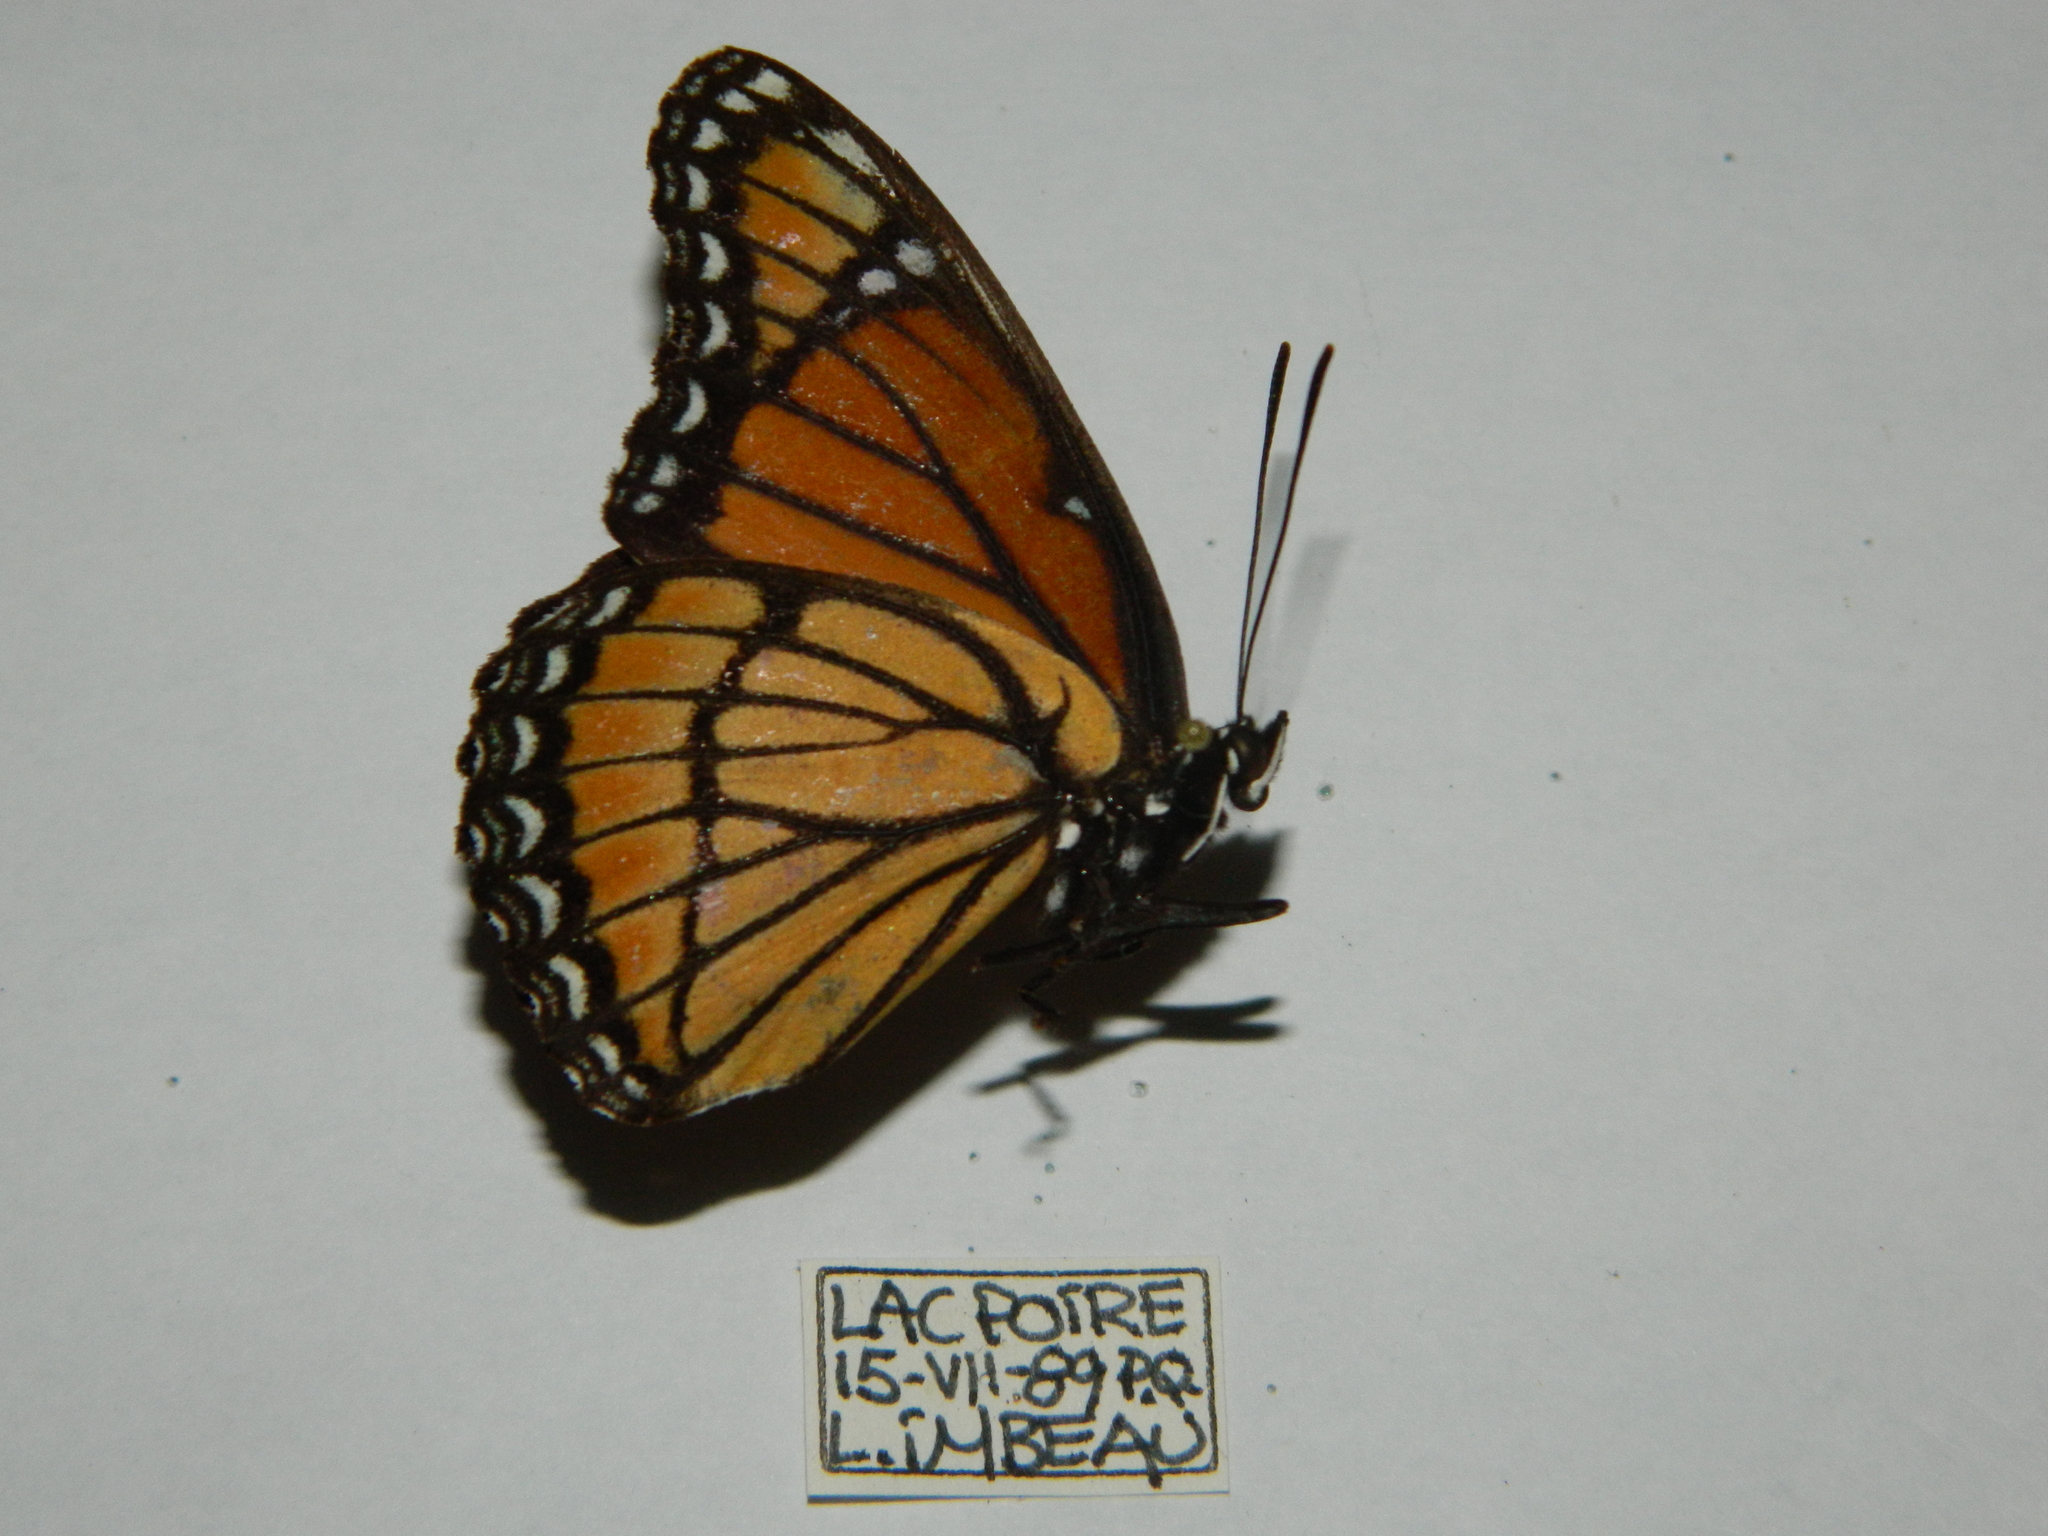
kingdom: Animalia
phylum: Arthropoda
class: Insecta
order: Lepidoptera
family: Nymphalidae
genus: Limenitis
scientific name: Limenitis archippus
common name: Viceroy
